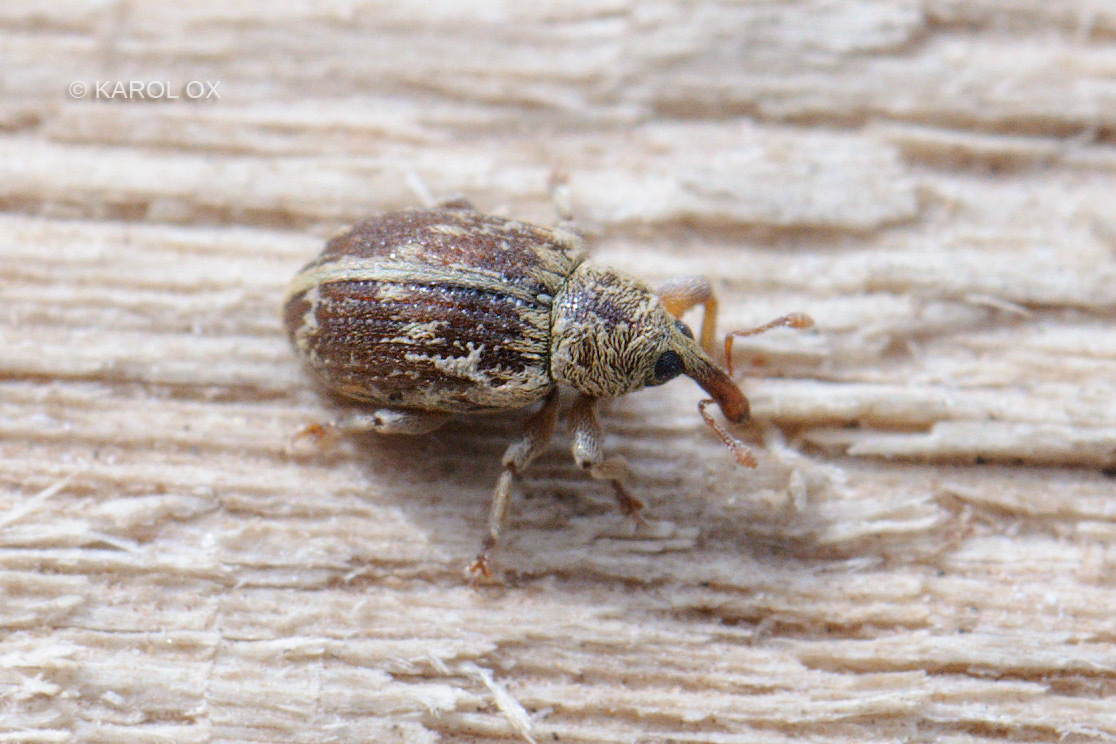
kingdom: Animalia
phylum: Arthropoda
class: Insecta
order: Coleoptera
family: Curculionidae
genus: Ellescus
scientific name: Ellescus scanicus
